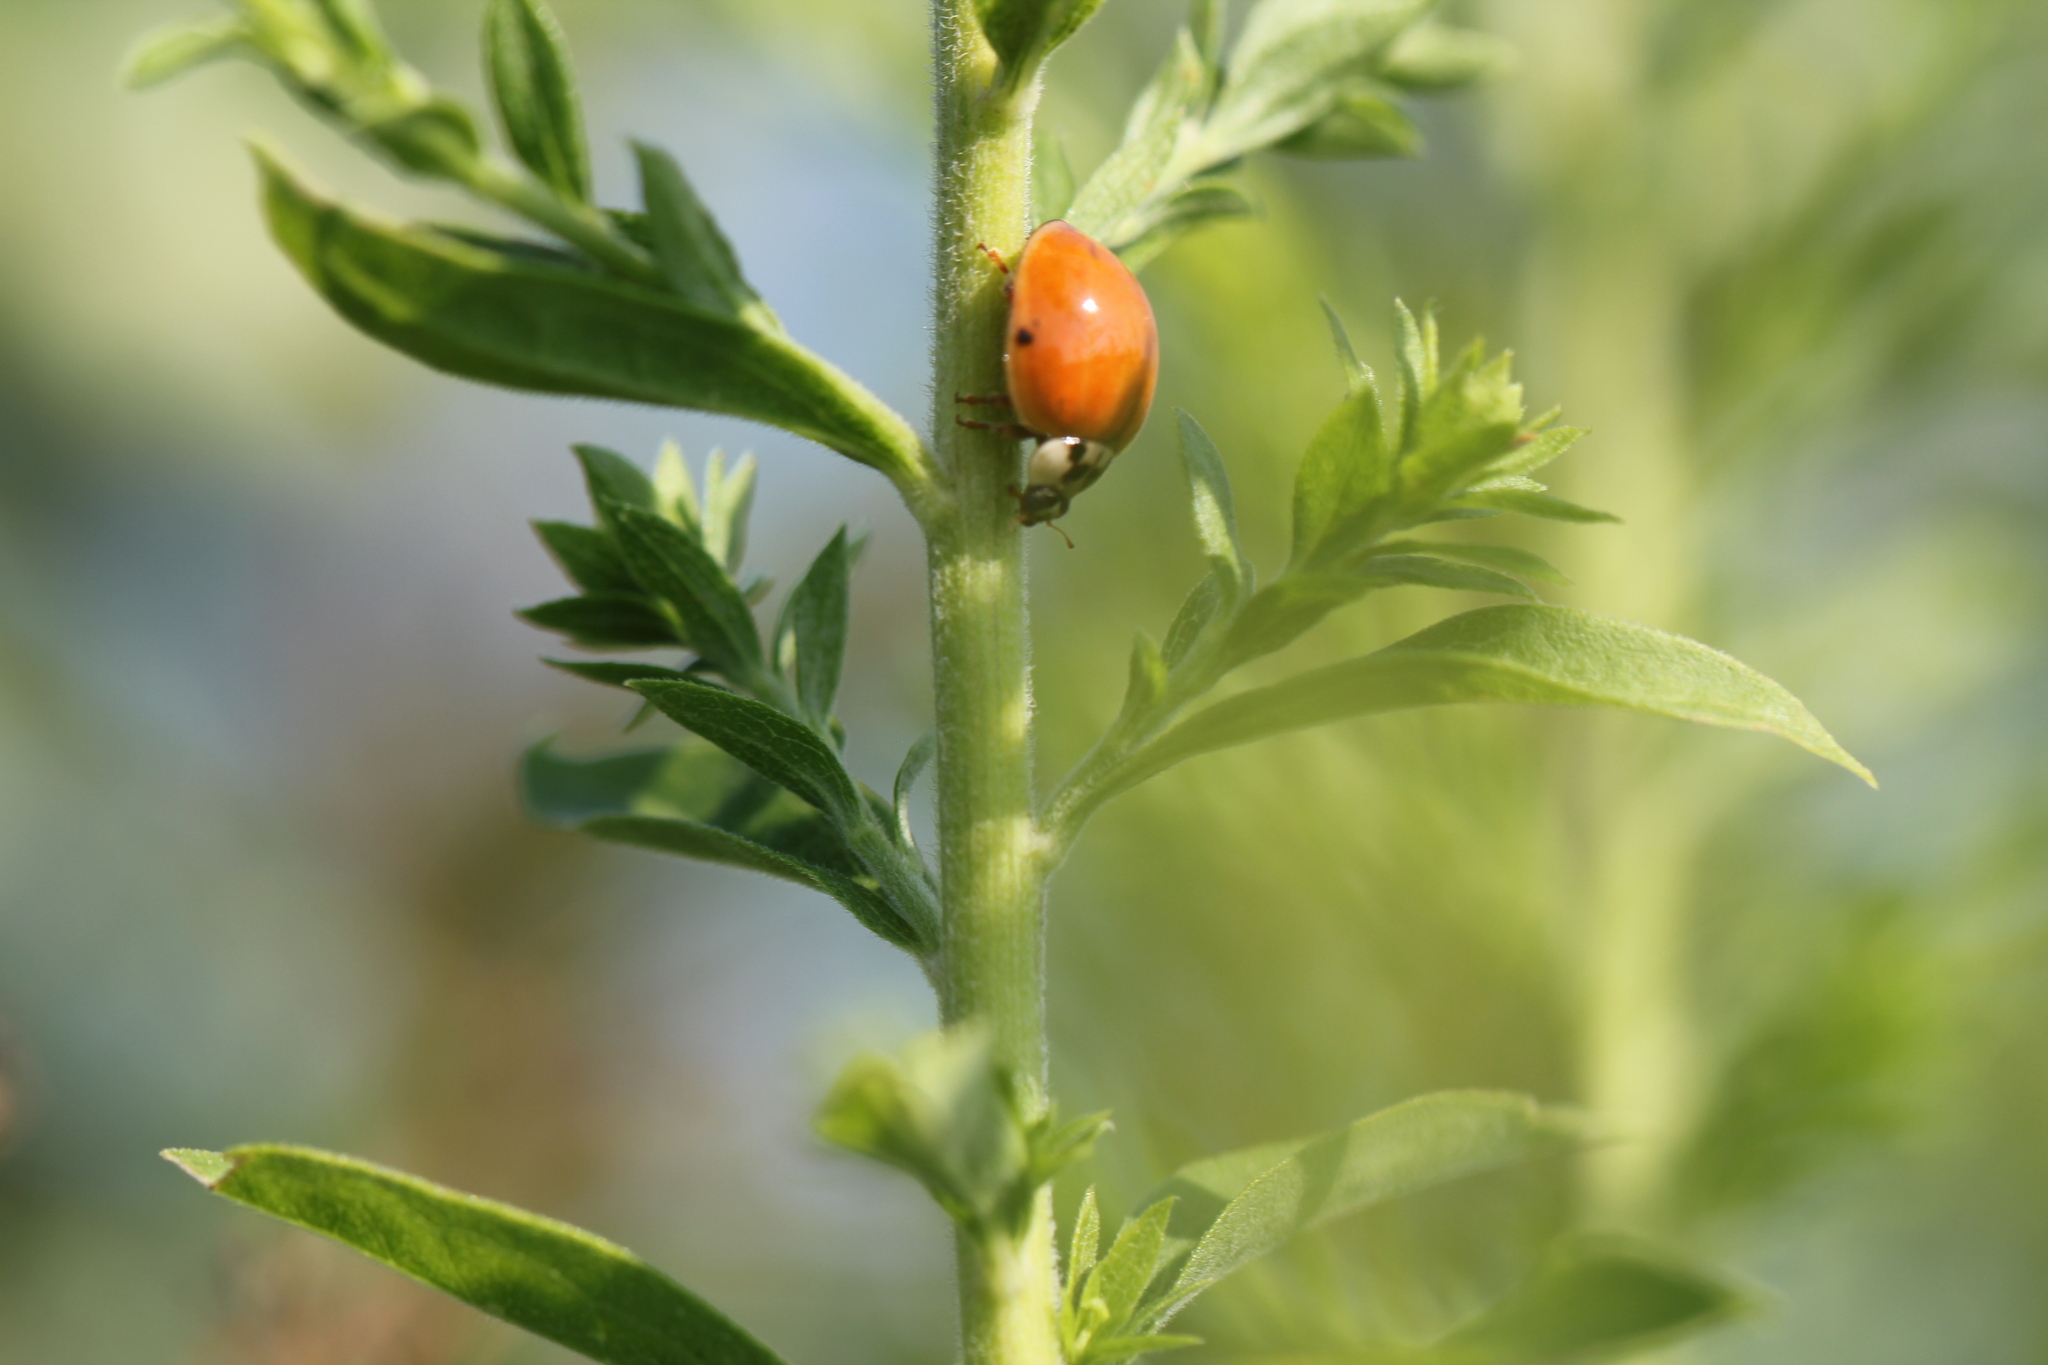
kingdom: Animalia
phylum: Arthropoda
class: Insecta
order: Coleoptera
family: Coccinellidae
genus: Harmonia
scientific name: Harmonia axyridis
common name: Harlequin ladybird
